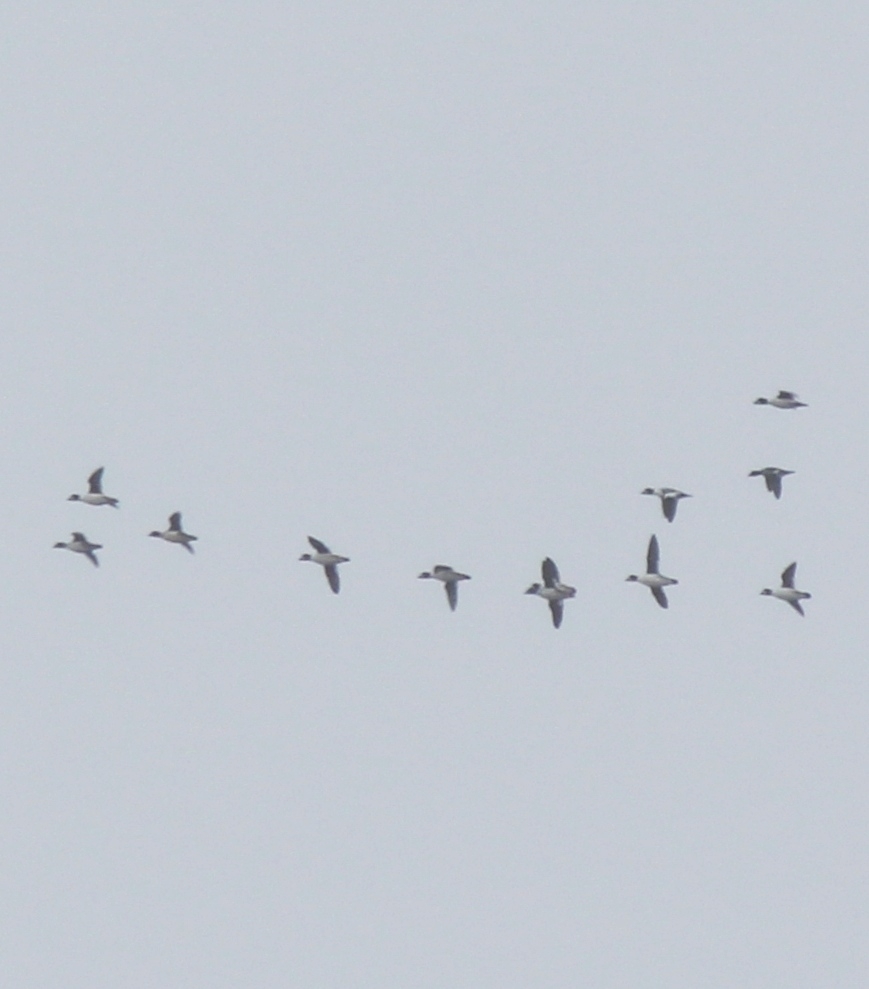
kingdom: Animalia
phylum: Chordata
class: Aves
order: Anseriformes
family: Anatidae
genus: Bucephala
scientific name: Bucephala clangula
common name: Common goldeneye
